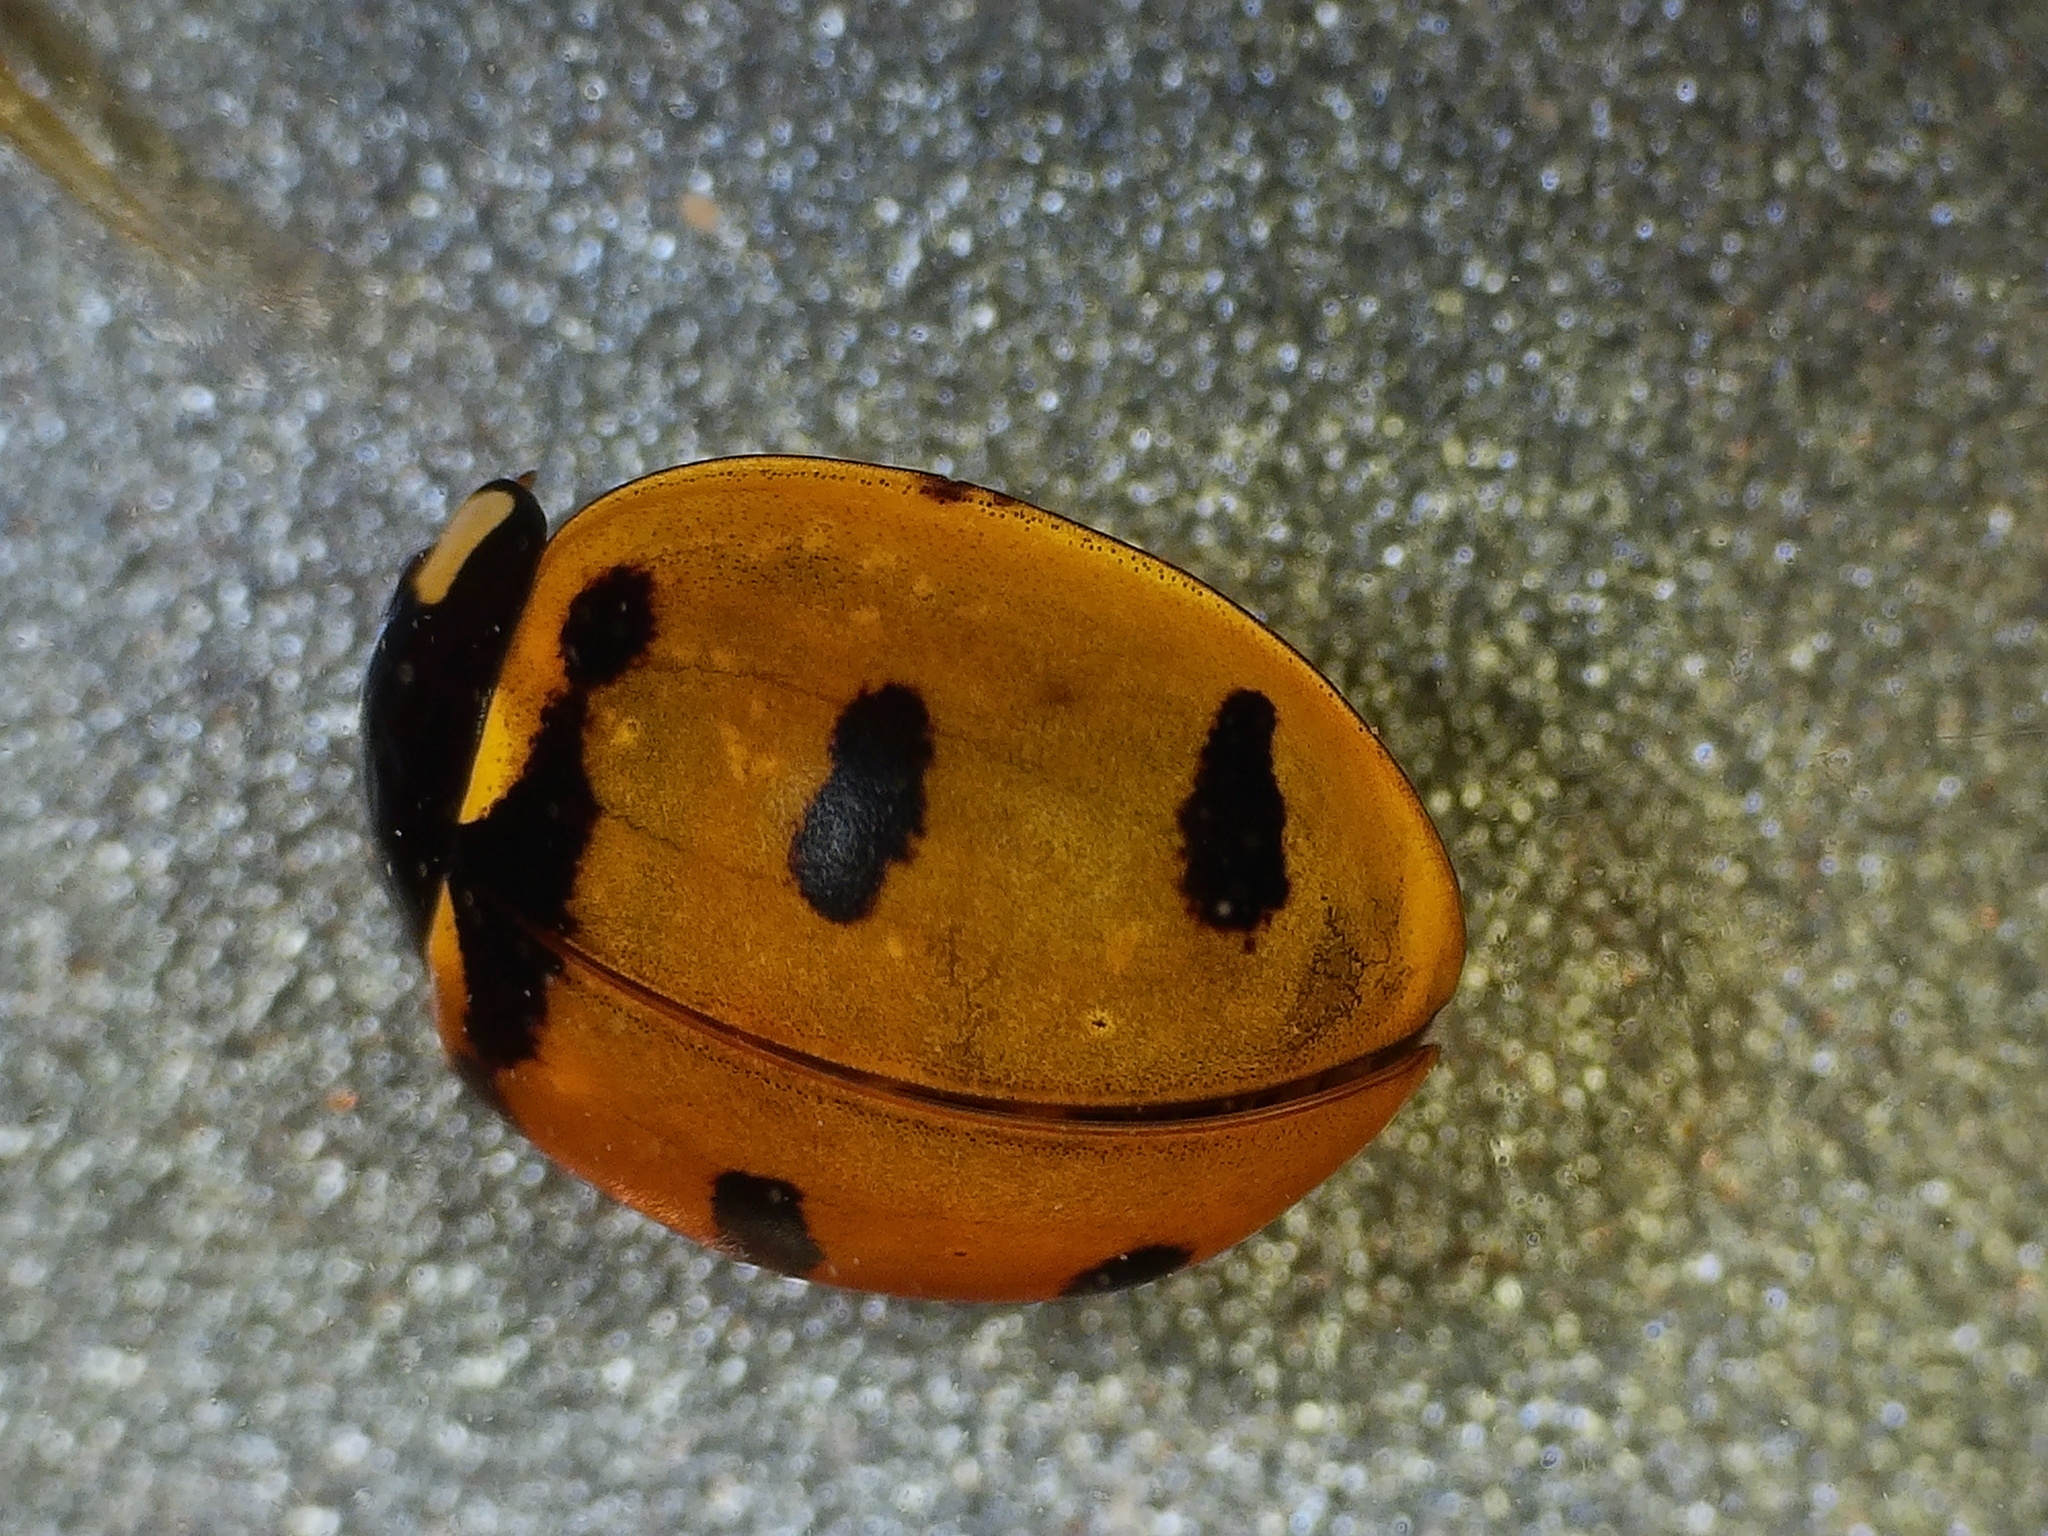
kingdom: Animalia
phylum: Arthropoda
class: Insecta
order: Coleoptera
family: Coccinellidae
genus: Coccinella
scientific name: Coccinella transversoguttata
